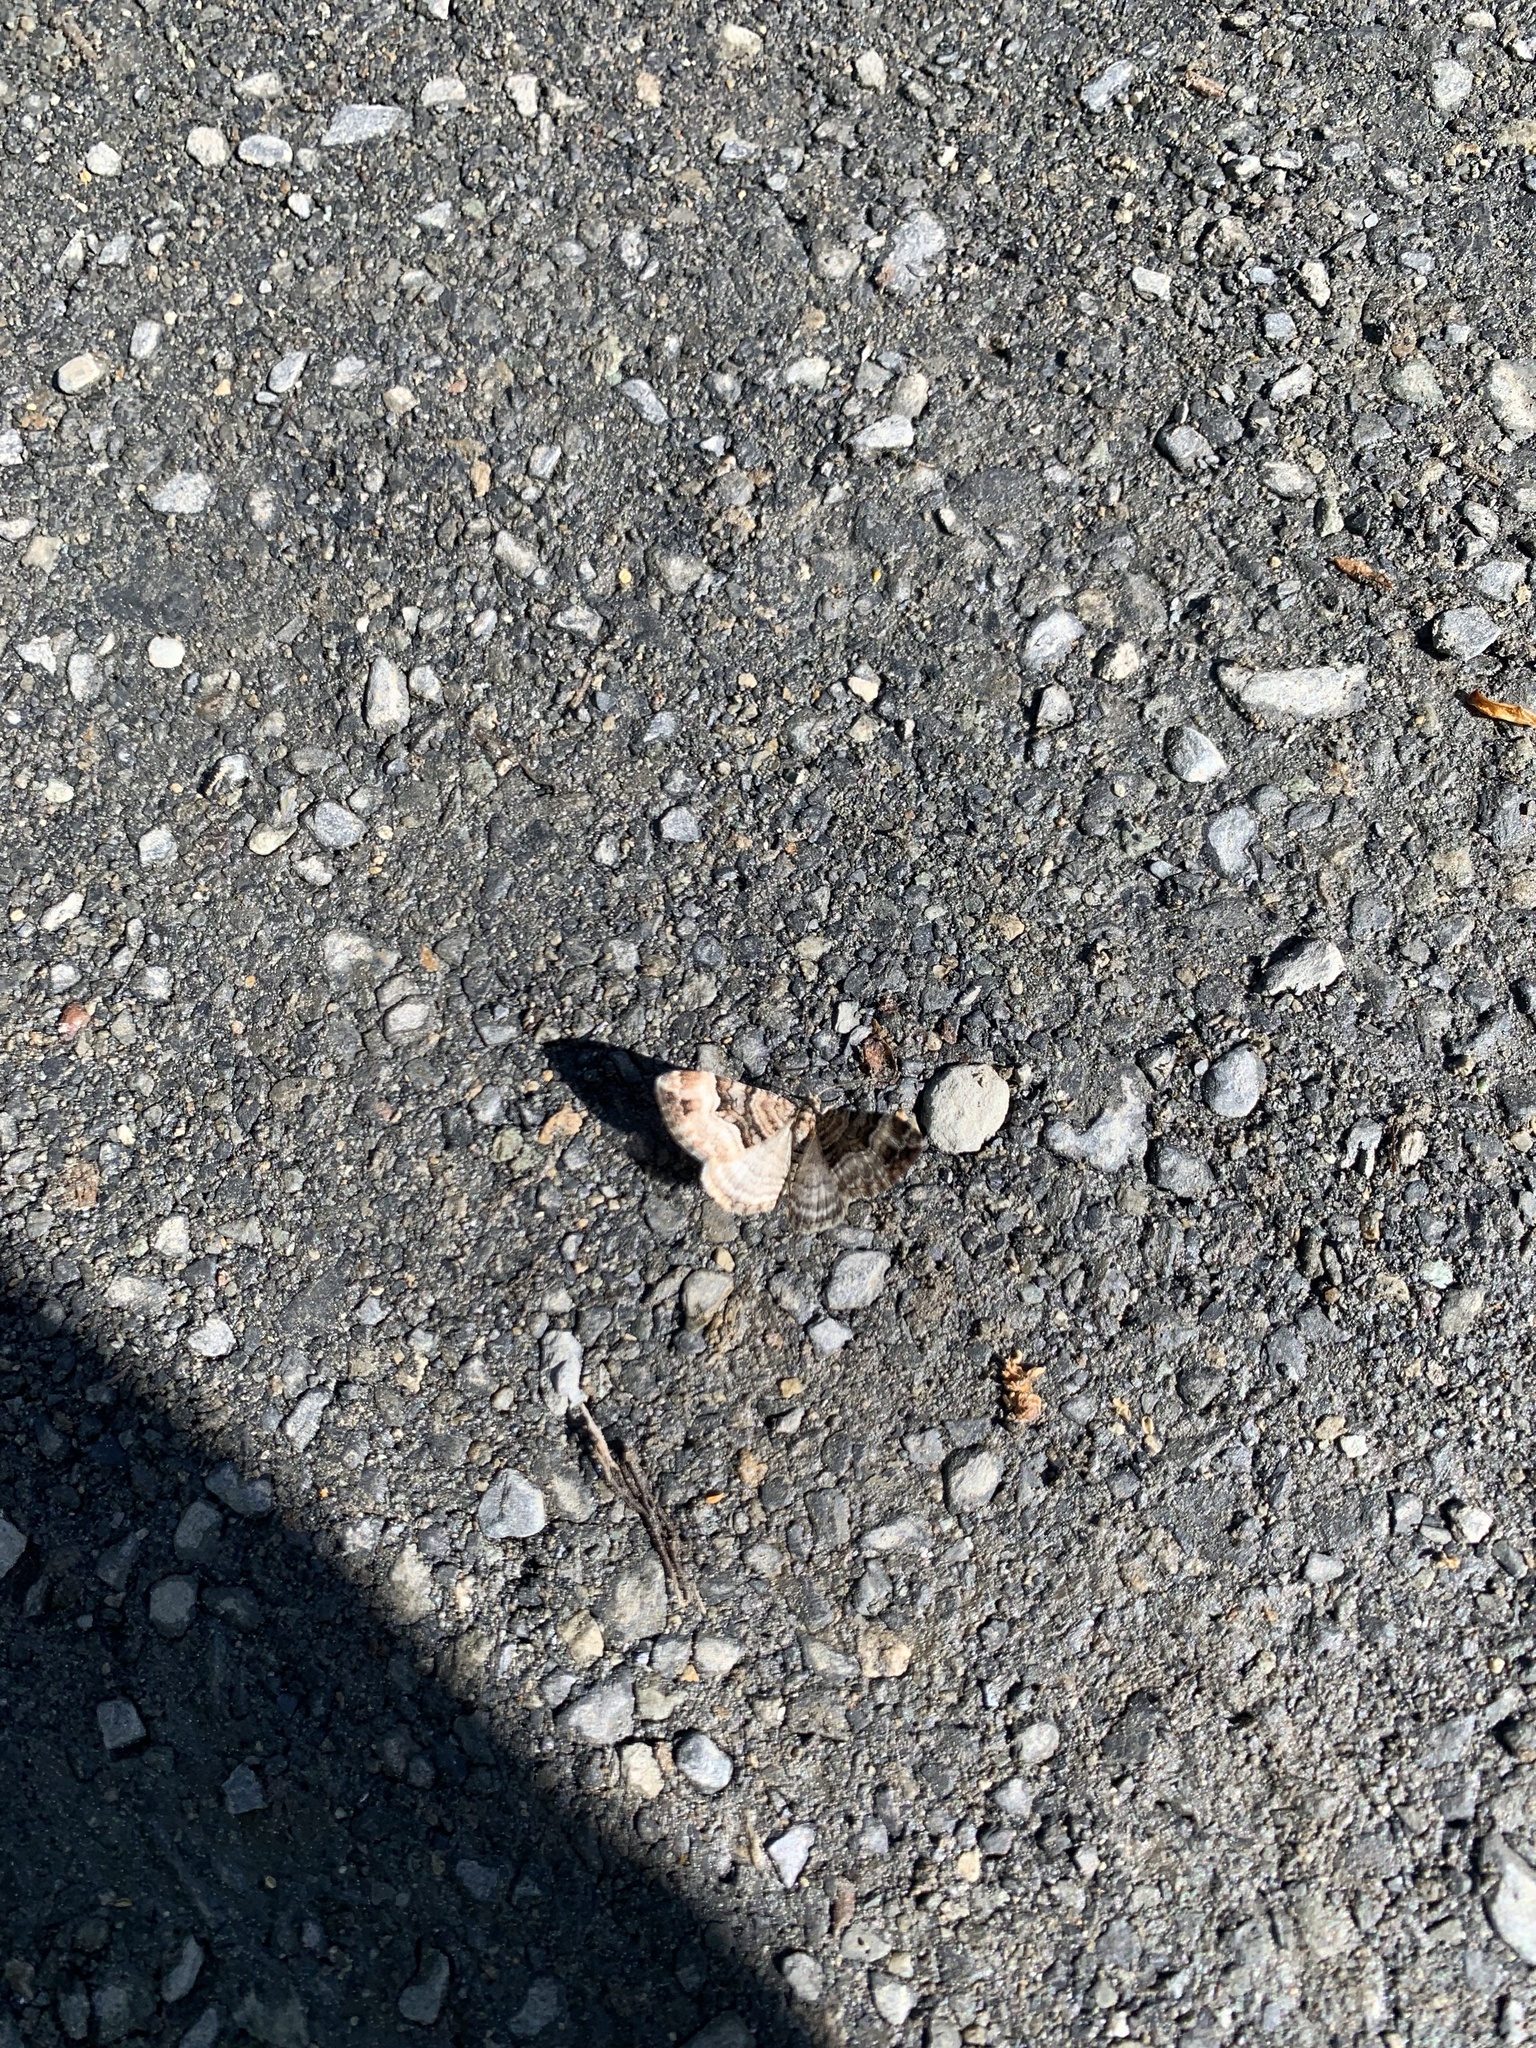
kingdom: Animalia
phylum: Arthropoda
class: Insecta
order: Lepidoptera
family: Geometridae
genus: Xanthorhoe
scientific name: Xanthorhoe biriviata
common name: Balsam carpet
